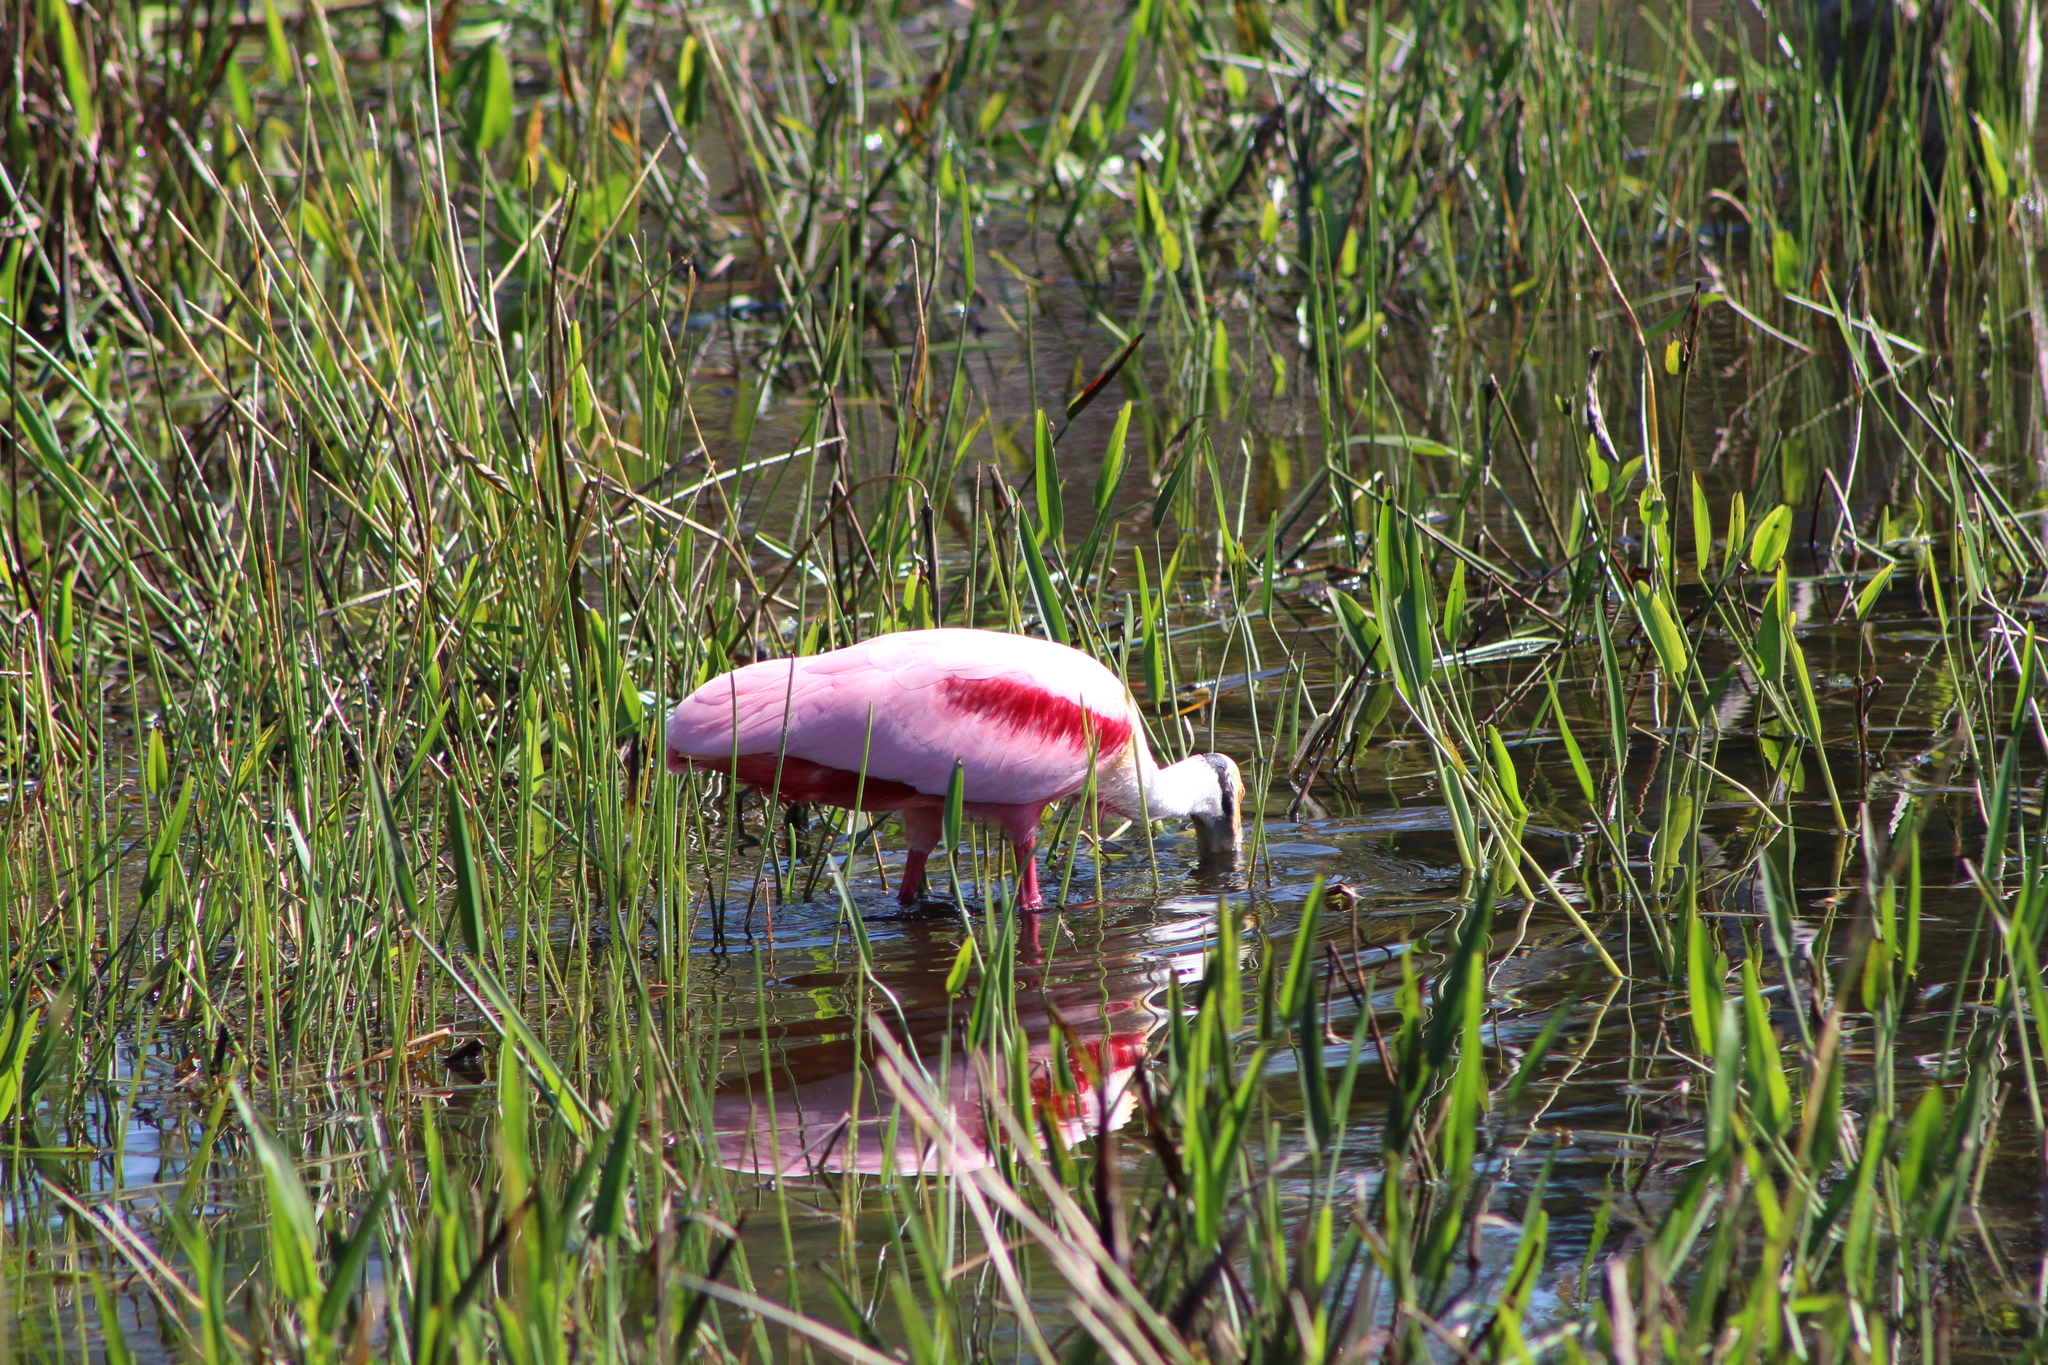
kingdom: Animalia
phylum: Chordata
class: Aves
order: Pelecaniformes
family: Threskiornithidae
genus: Platalea
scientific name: Platalea ajaja
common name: Roseate spoonbill
